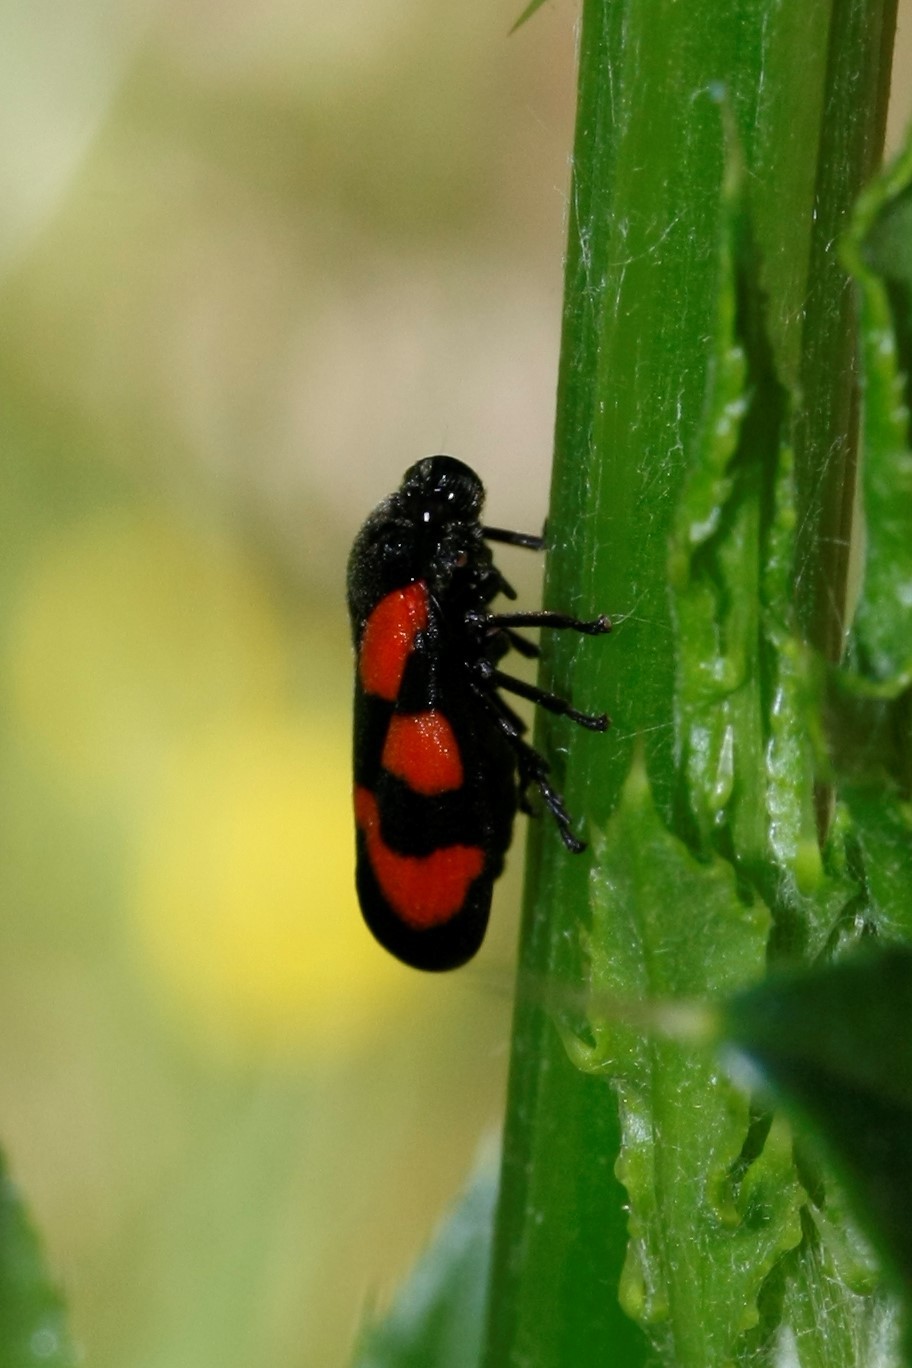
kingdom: Animalia
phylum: Arthropoda
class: Insecta
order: Hemiptera
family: Cercopidae
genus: Cercopis
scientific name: Cercopis vulnerata
